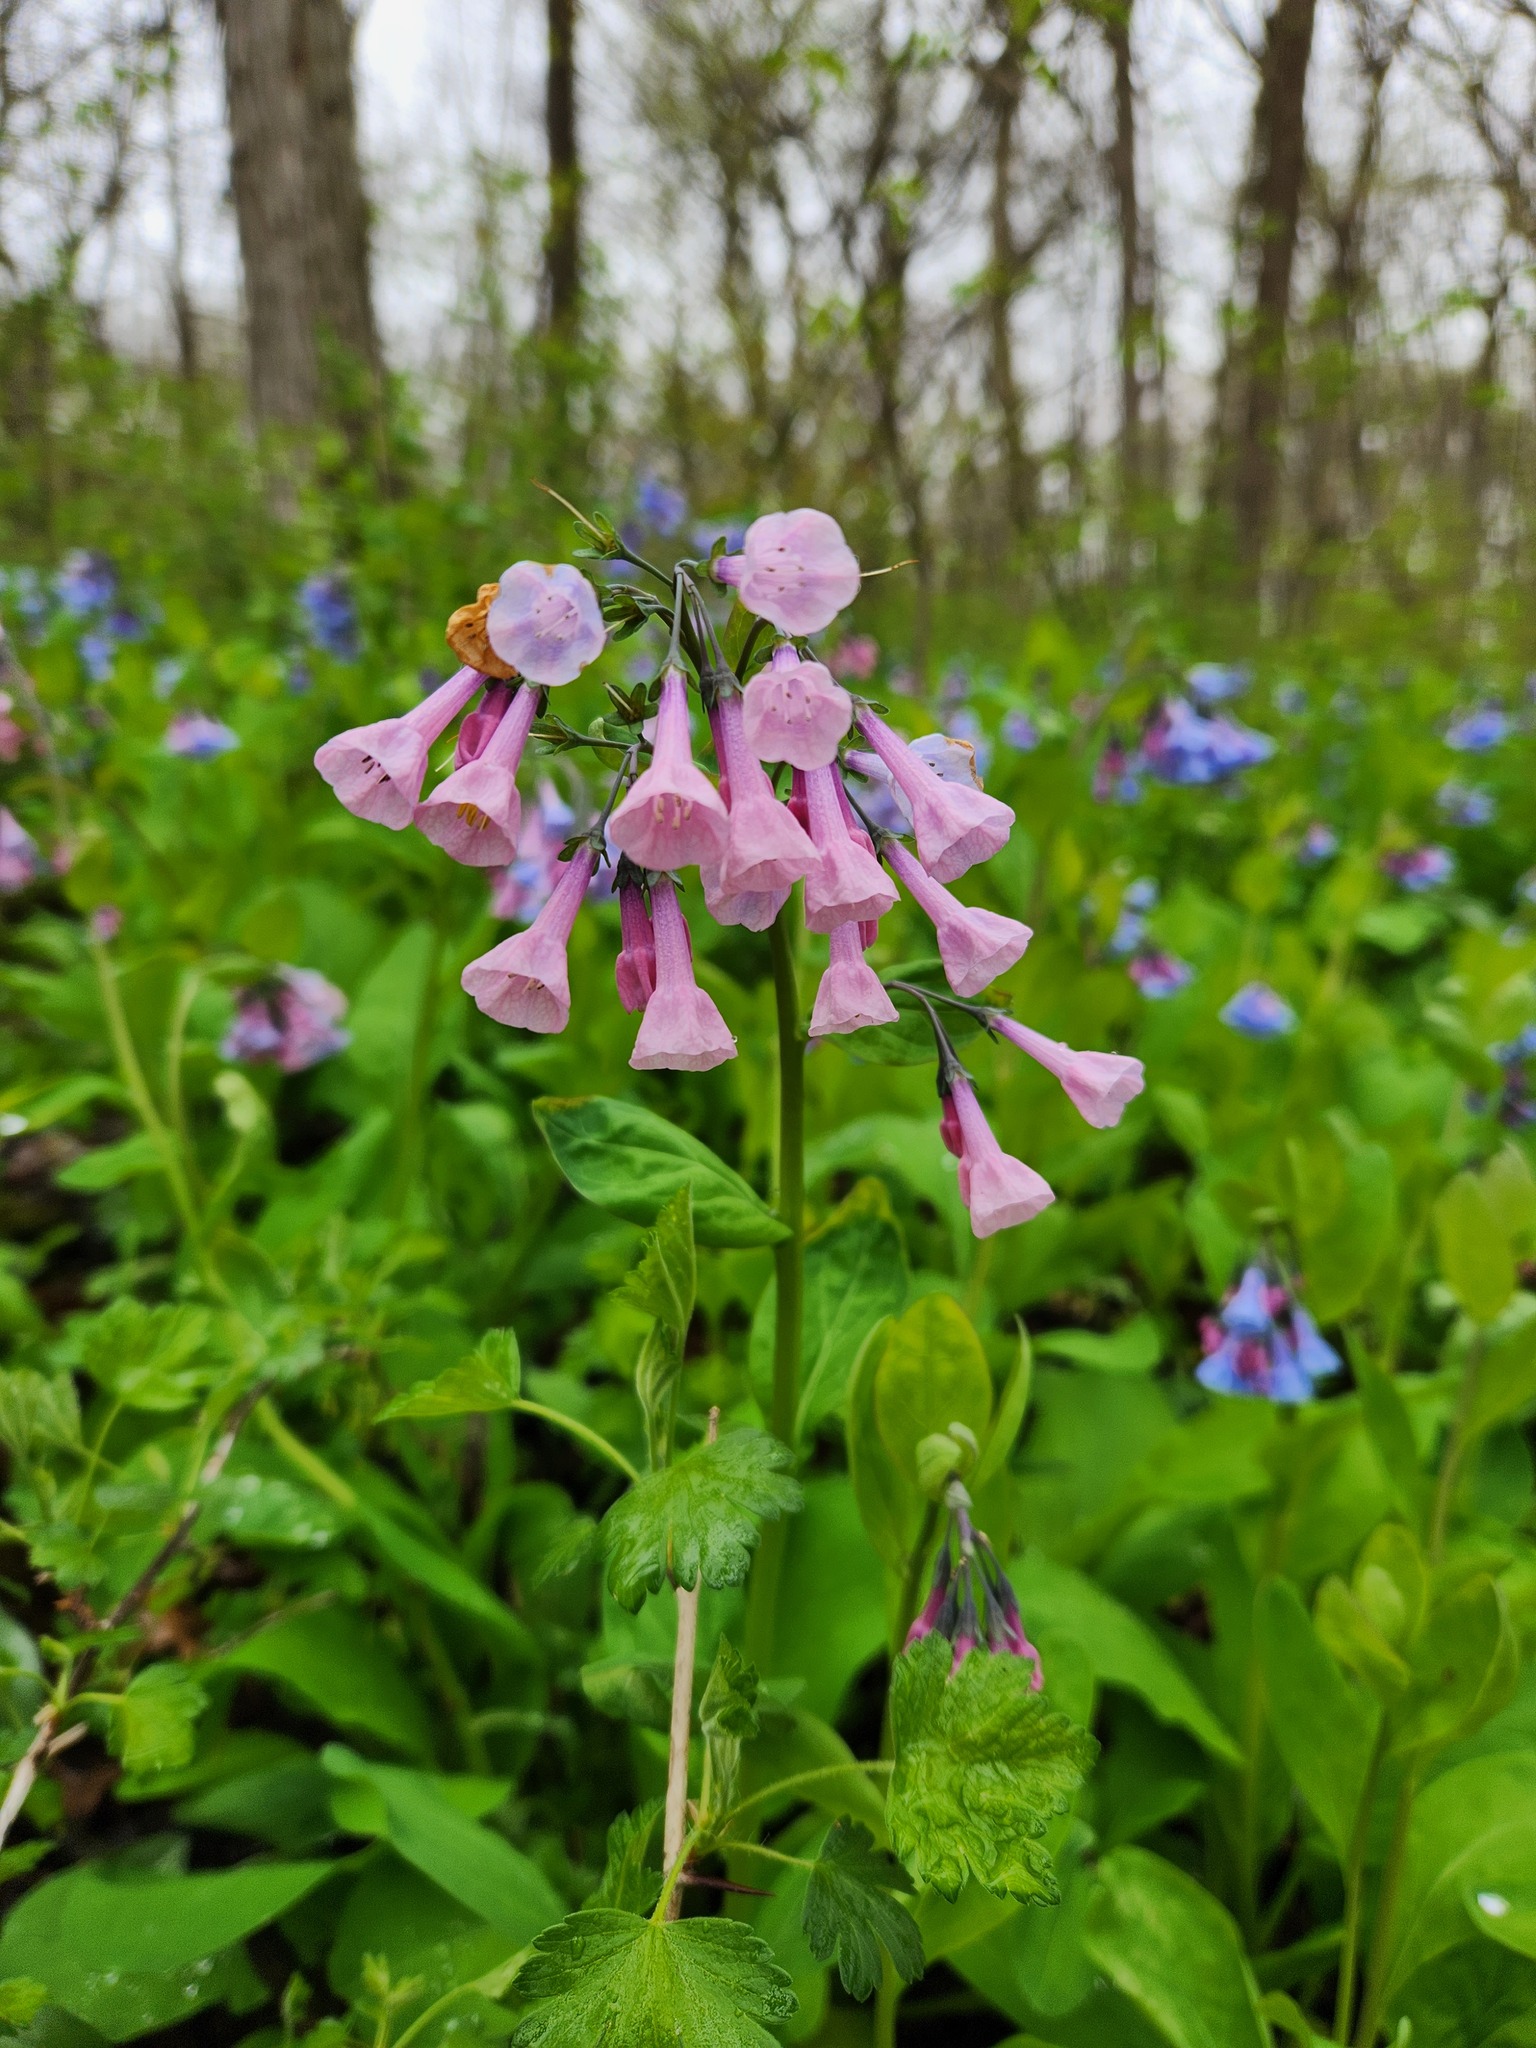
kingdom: Plantae
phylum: Tracheophyta
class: Magnoliopsida
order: Boraginales
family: Boraginaceae
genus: Mertensia
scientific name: Mertensia virginica
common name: Virginia bluebells
